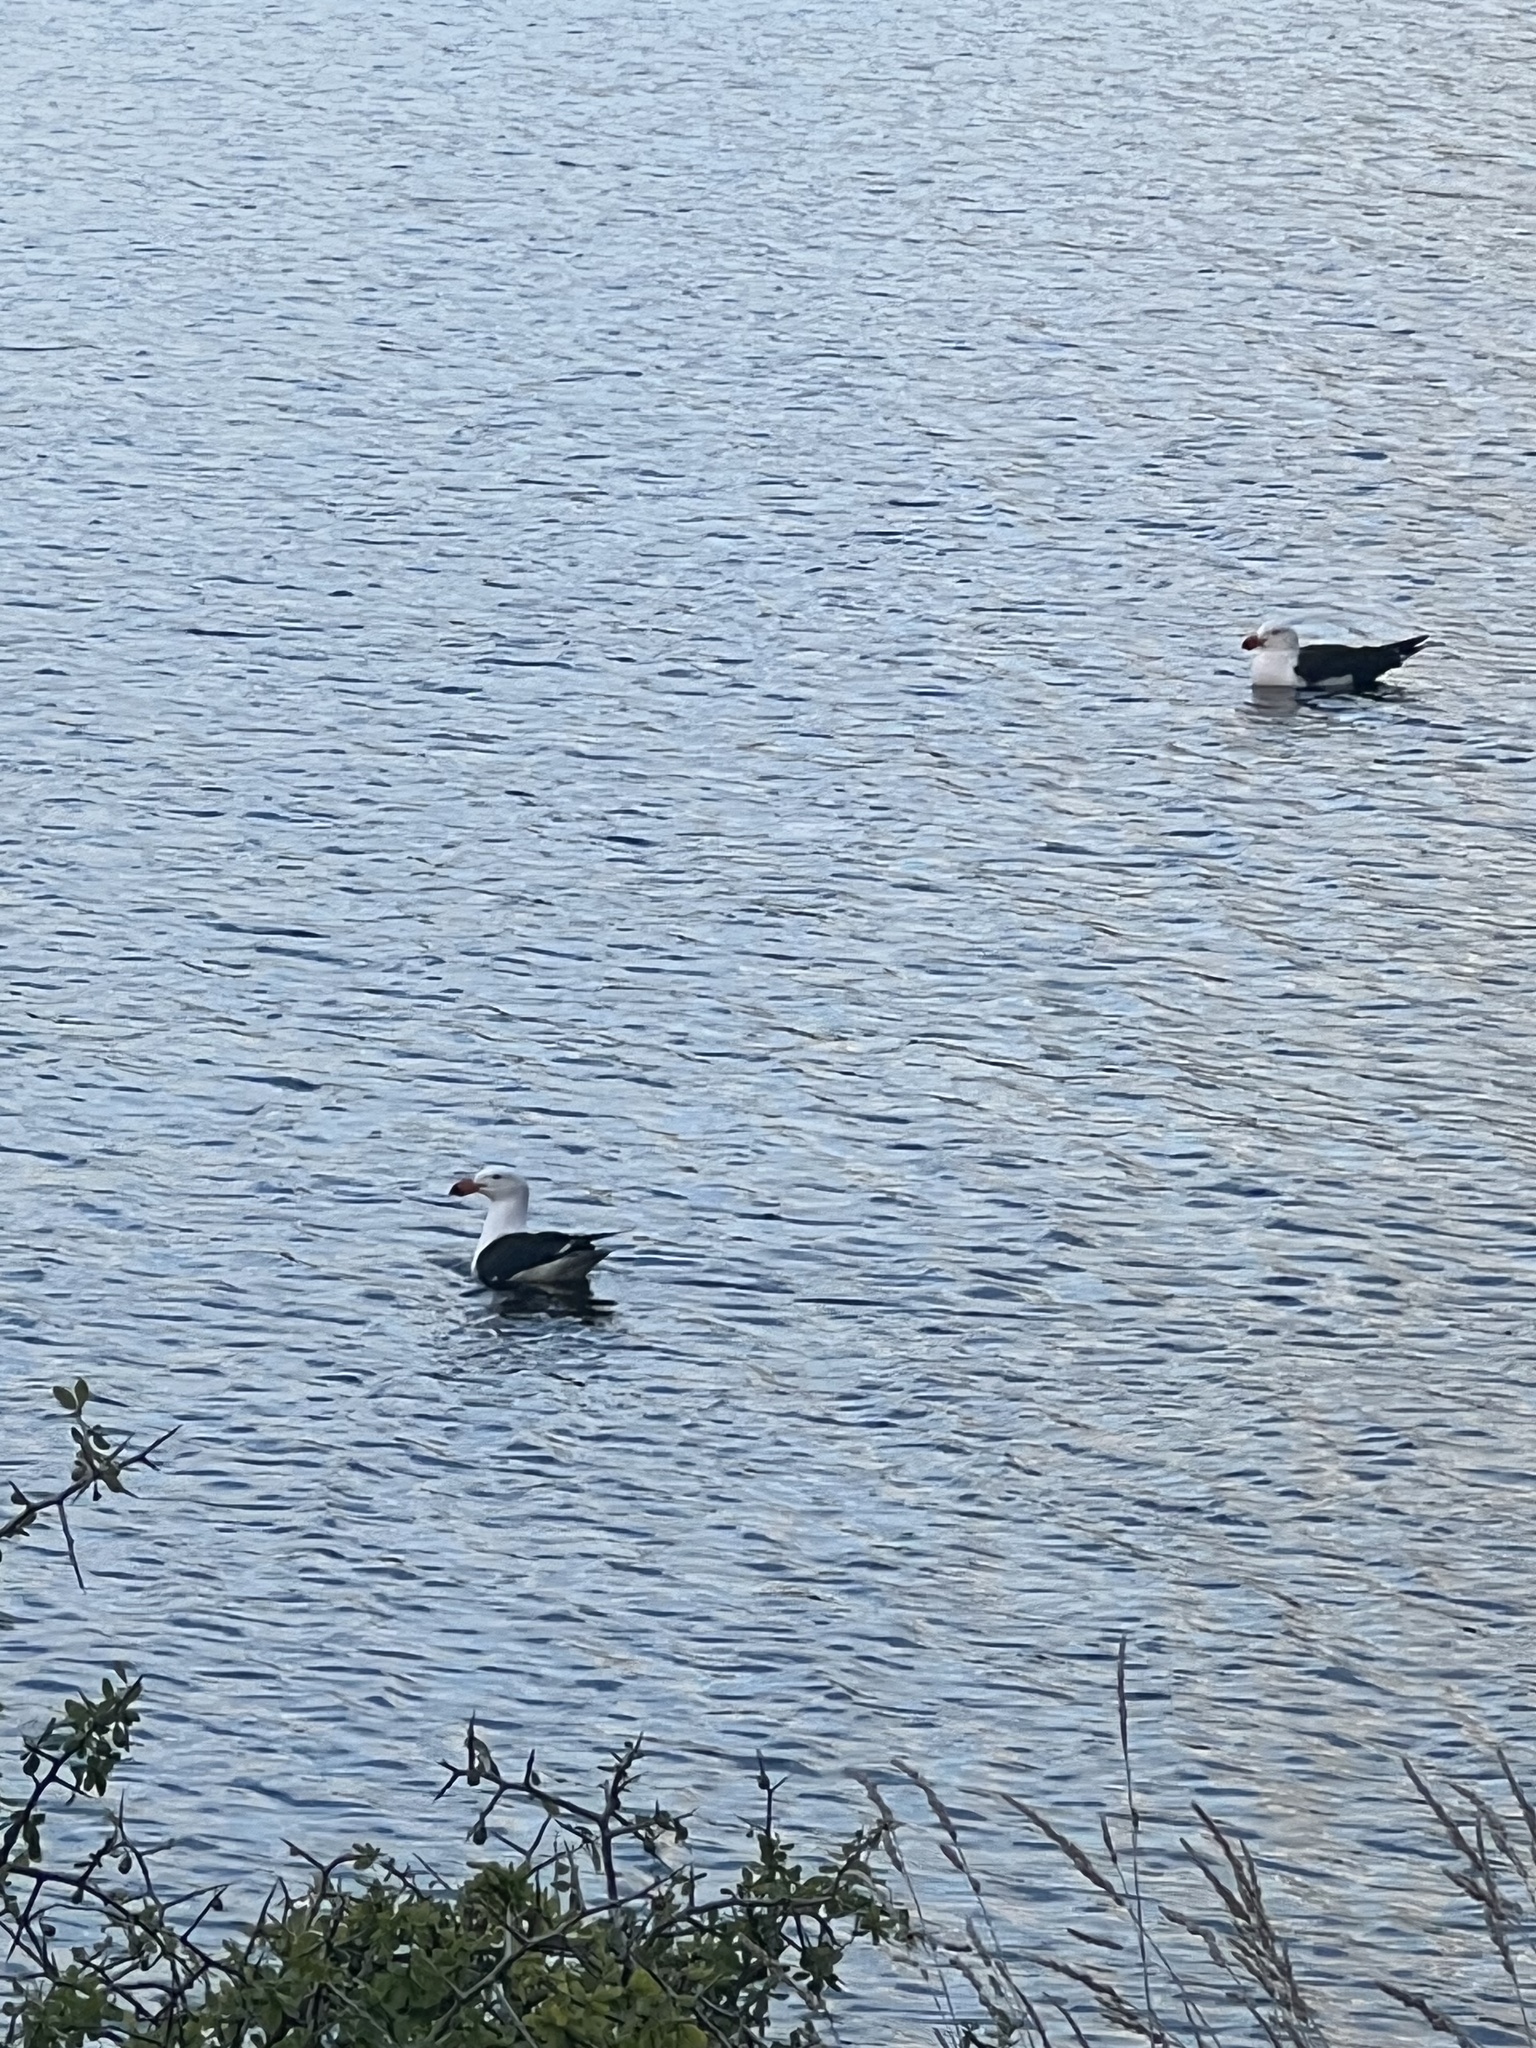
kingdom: Animalia
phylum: Chordata
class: Aves
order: Charadriiformes
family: Laridae
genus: Larus
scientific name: Larus pacificus
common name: Pacific gull
